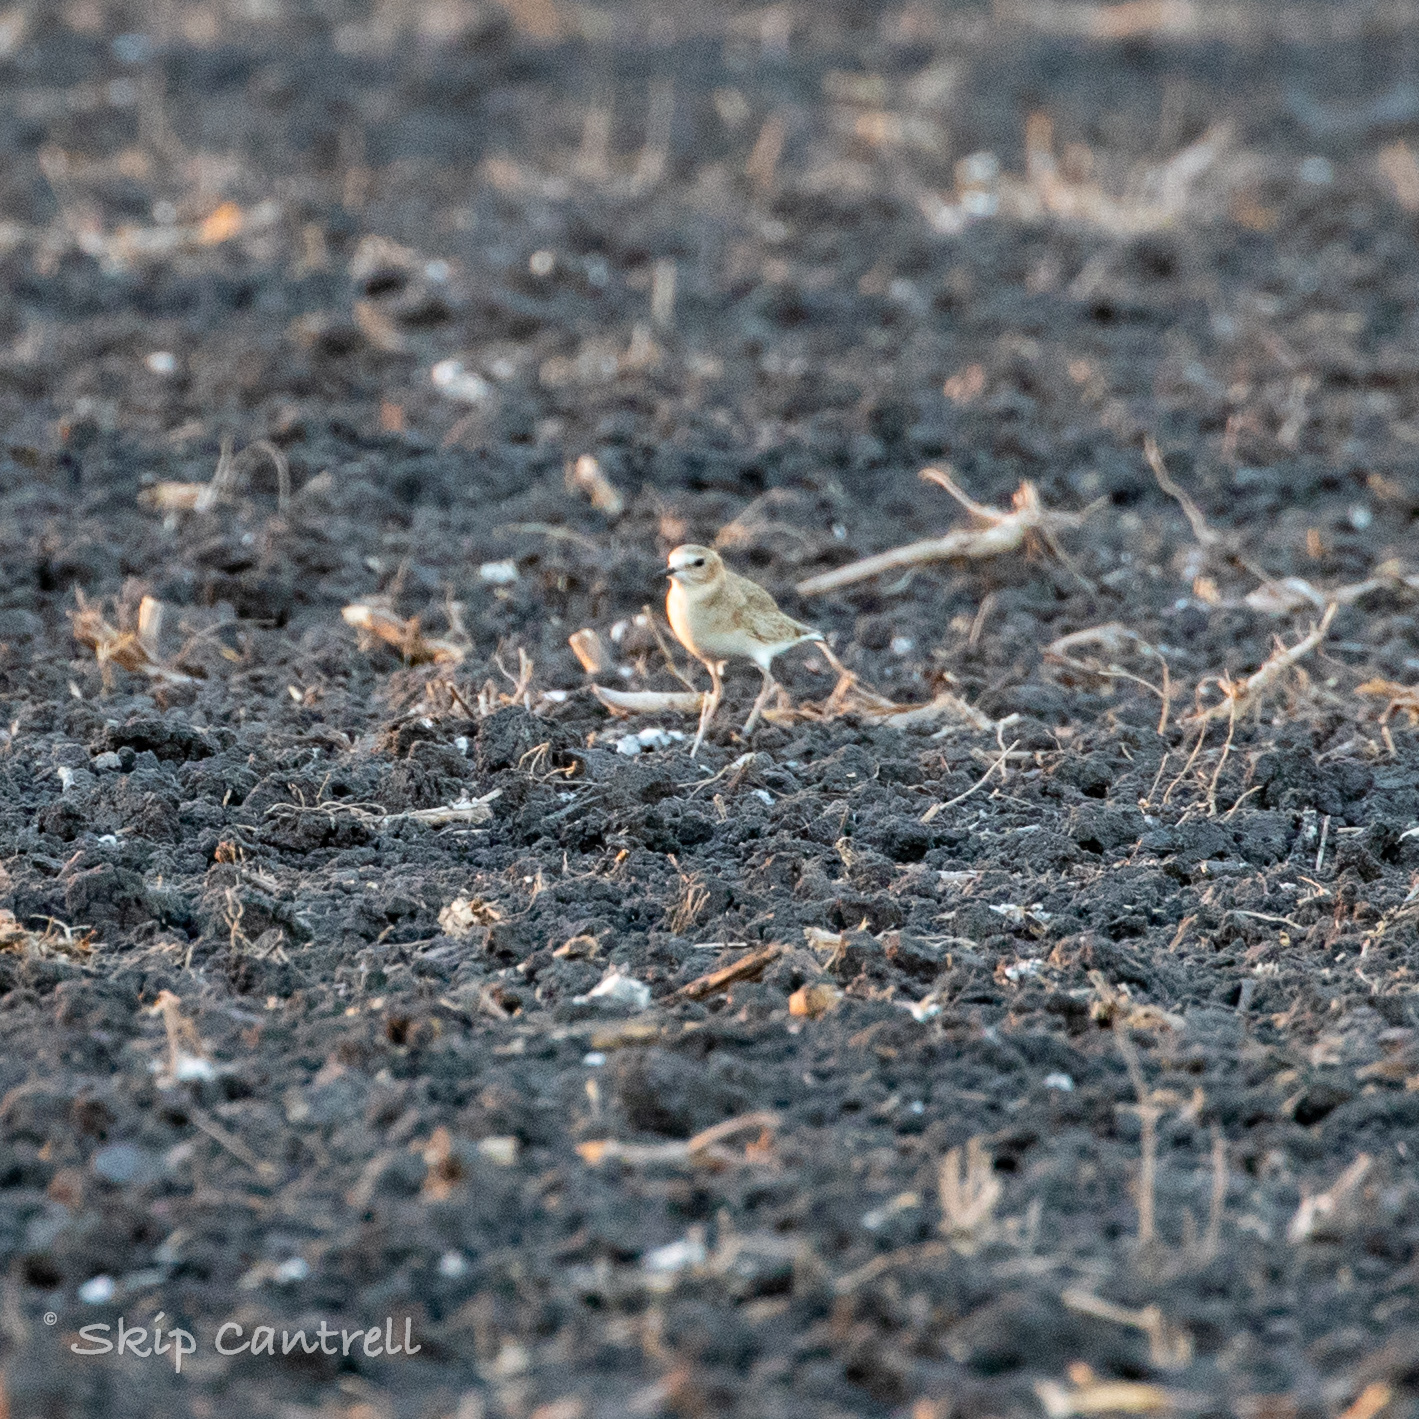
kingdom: Animalia
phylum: Chordata
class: Aves
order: Charadriiformes
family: Charadriidae
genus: Anarhynchus
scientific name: Anarhynchus
